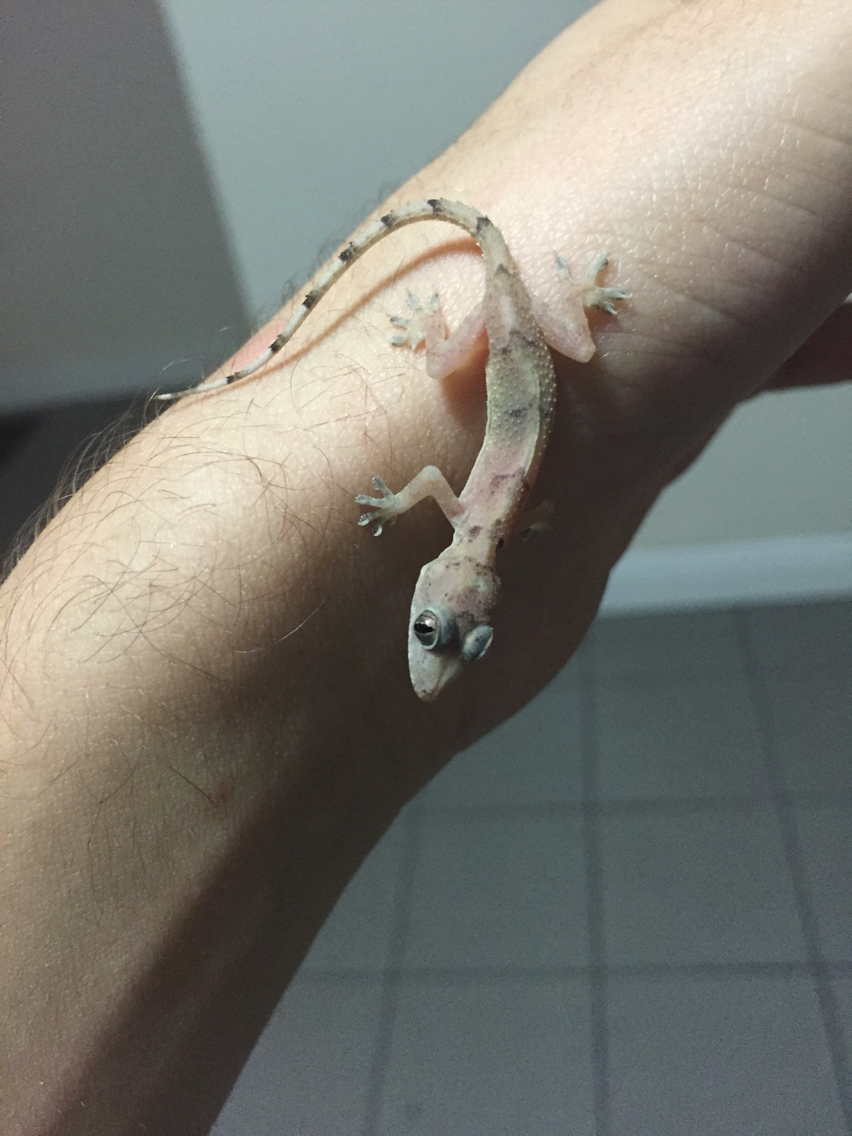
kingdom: Animalia
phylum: Chordata
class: Squamata
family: Gekkonidae
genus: Hemidactylus
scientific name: Hemidactylus mabouia
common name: House gecko
